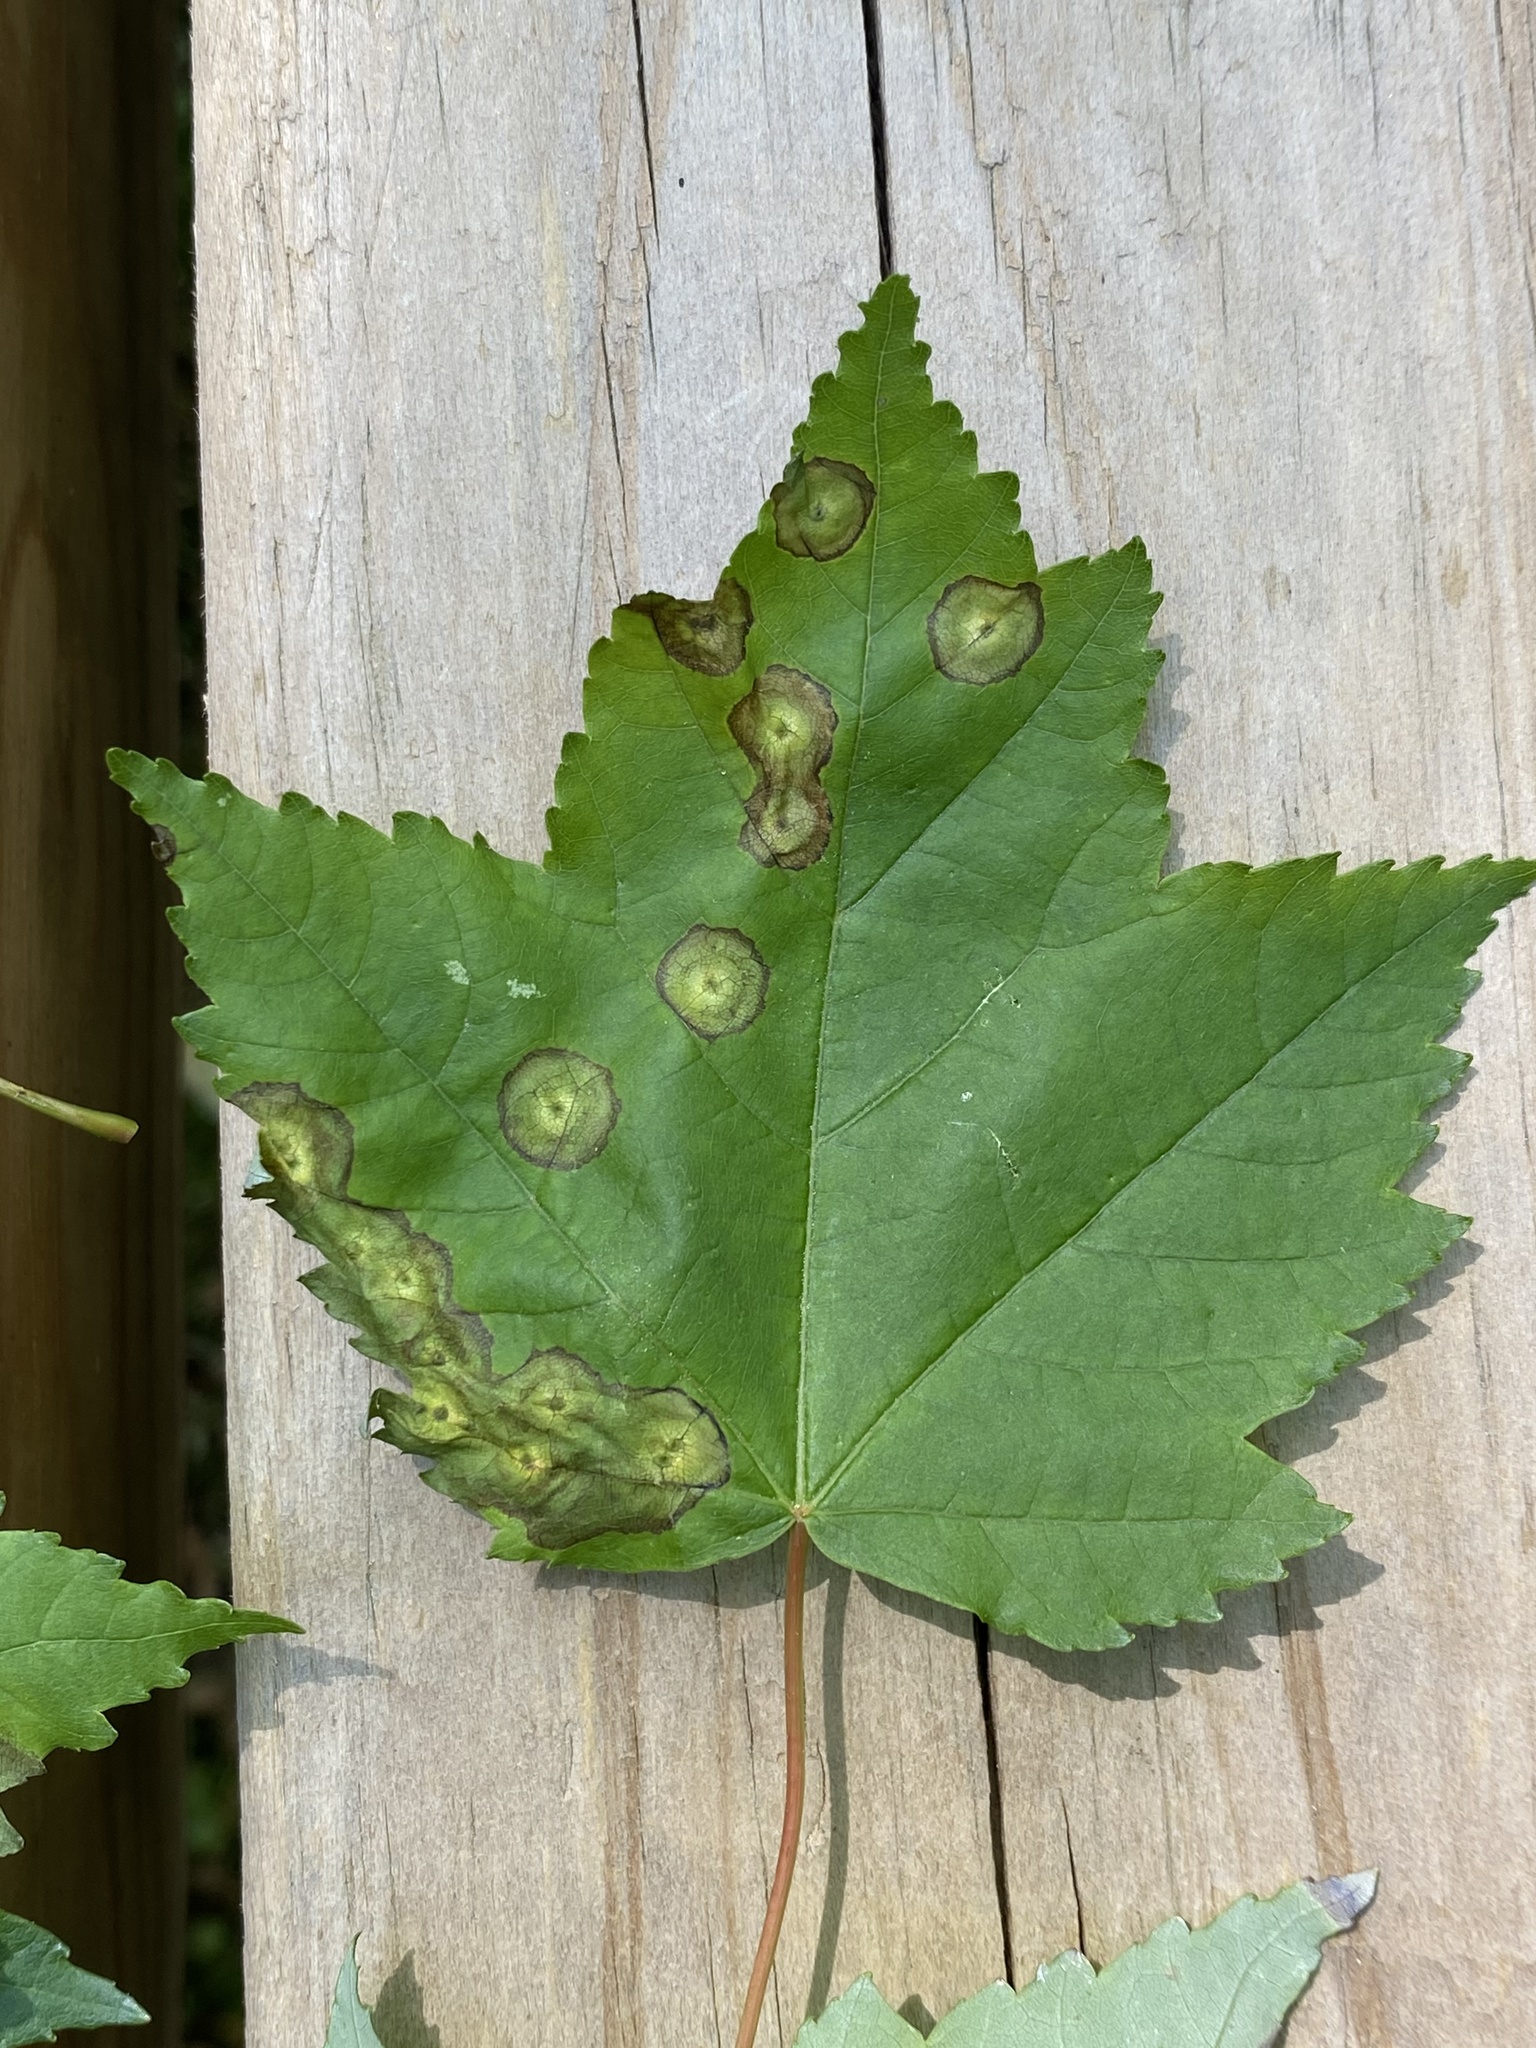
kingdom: Animalia
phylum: Arthropoda
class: Insecta
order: Diptera
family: Cecidomyiidae
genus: Acericecis
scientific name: Acericecis ocellaris
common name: Ocellate gall midge
